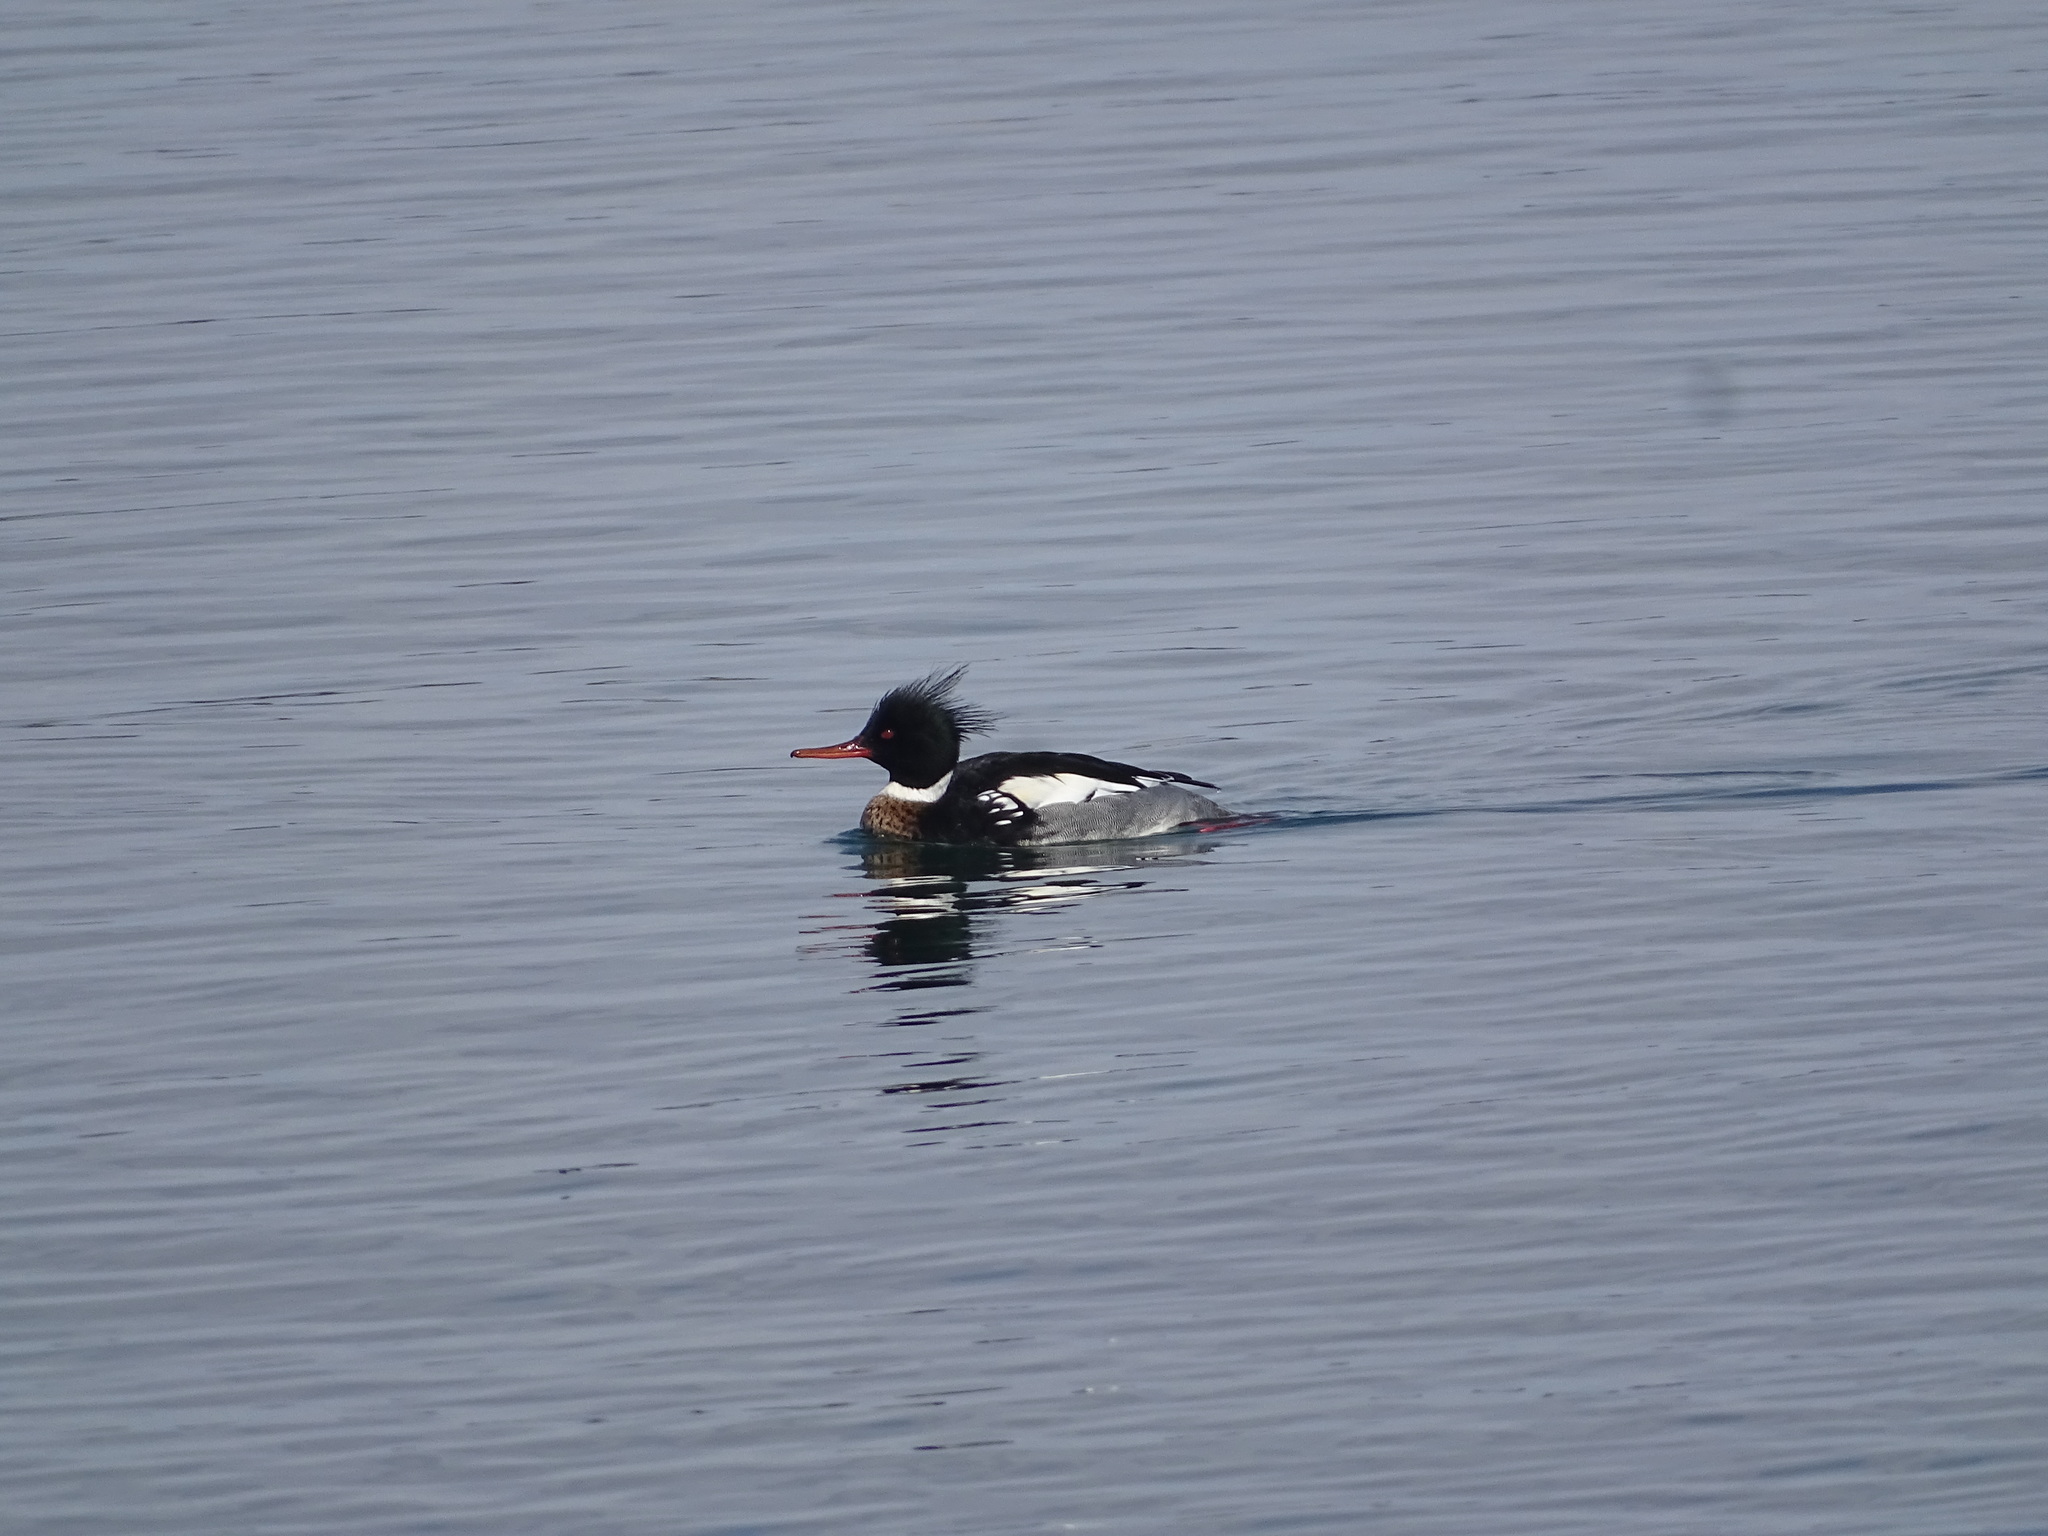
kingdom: Animalia
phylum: Chordata
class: Aves
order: Anseriformes
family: Anatidae
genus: Mergus
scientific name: Mergus serrator
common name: Red-breasted merganser
